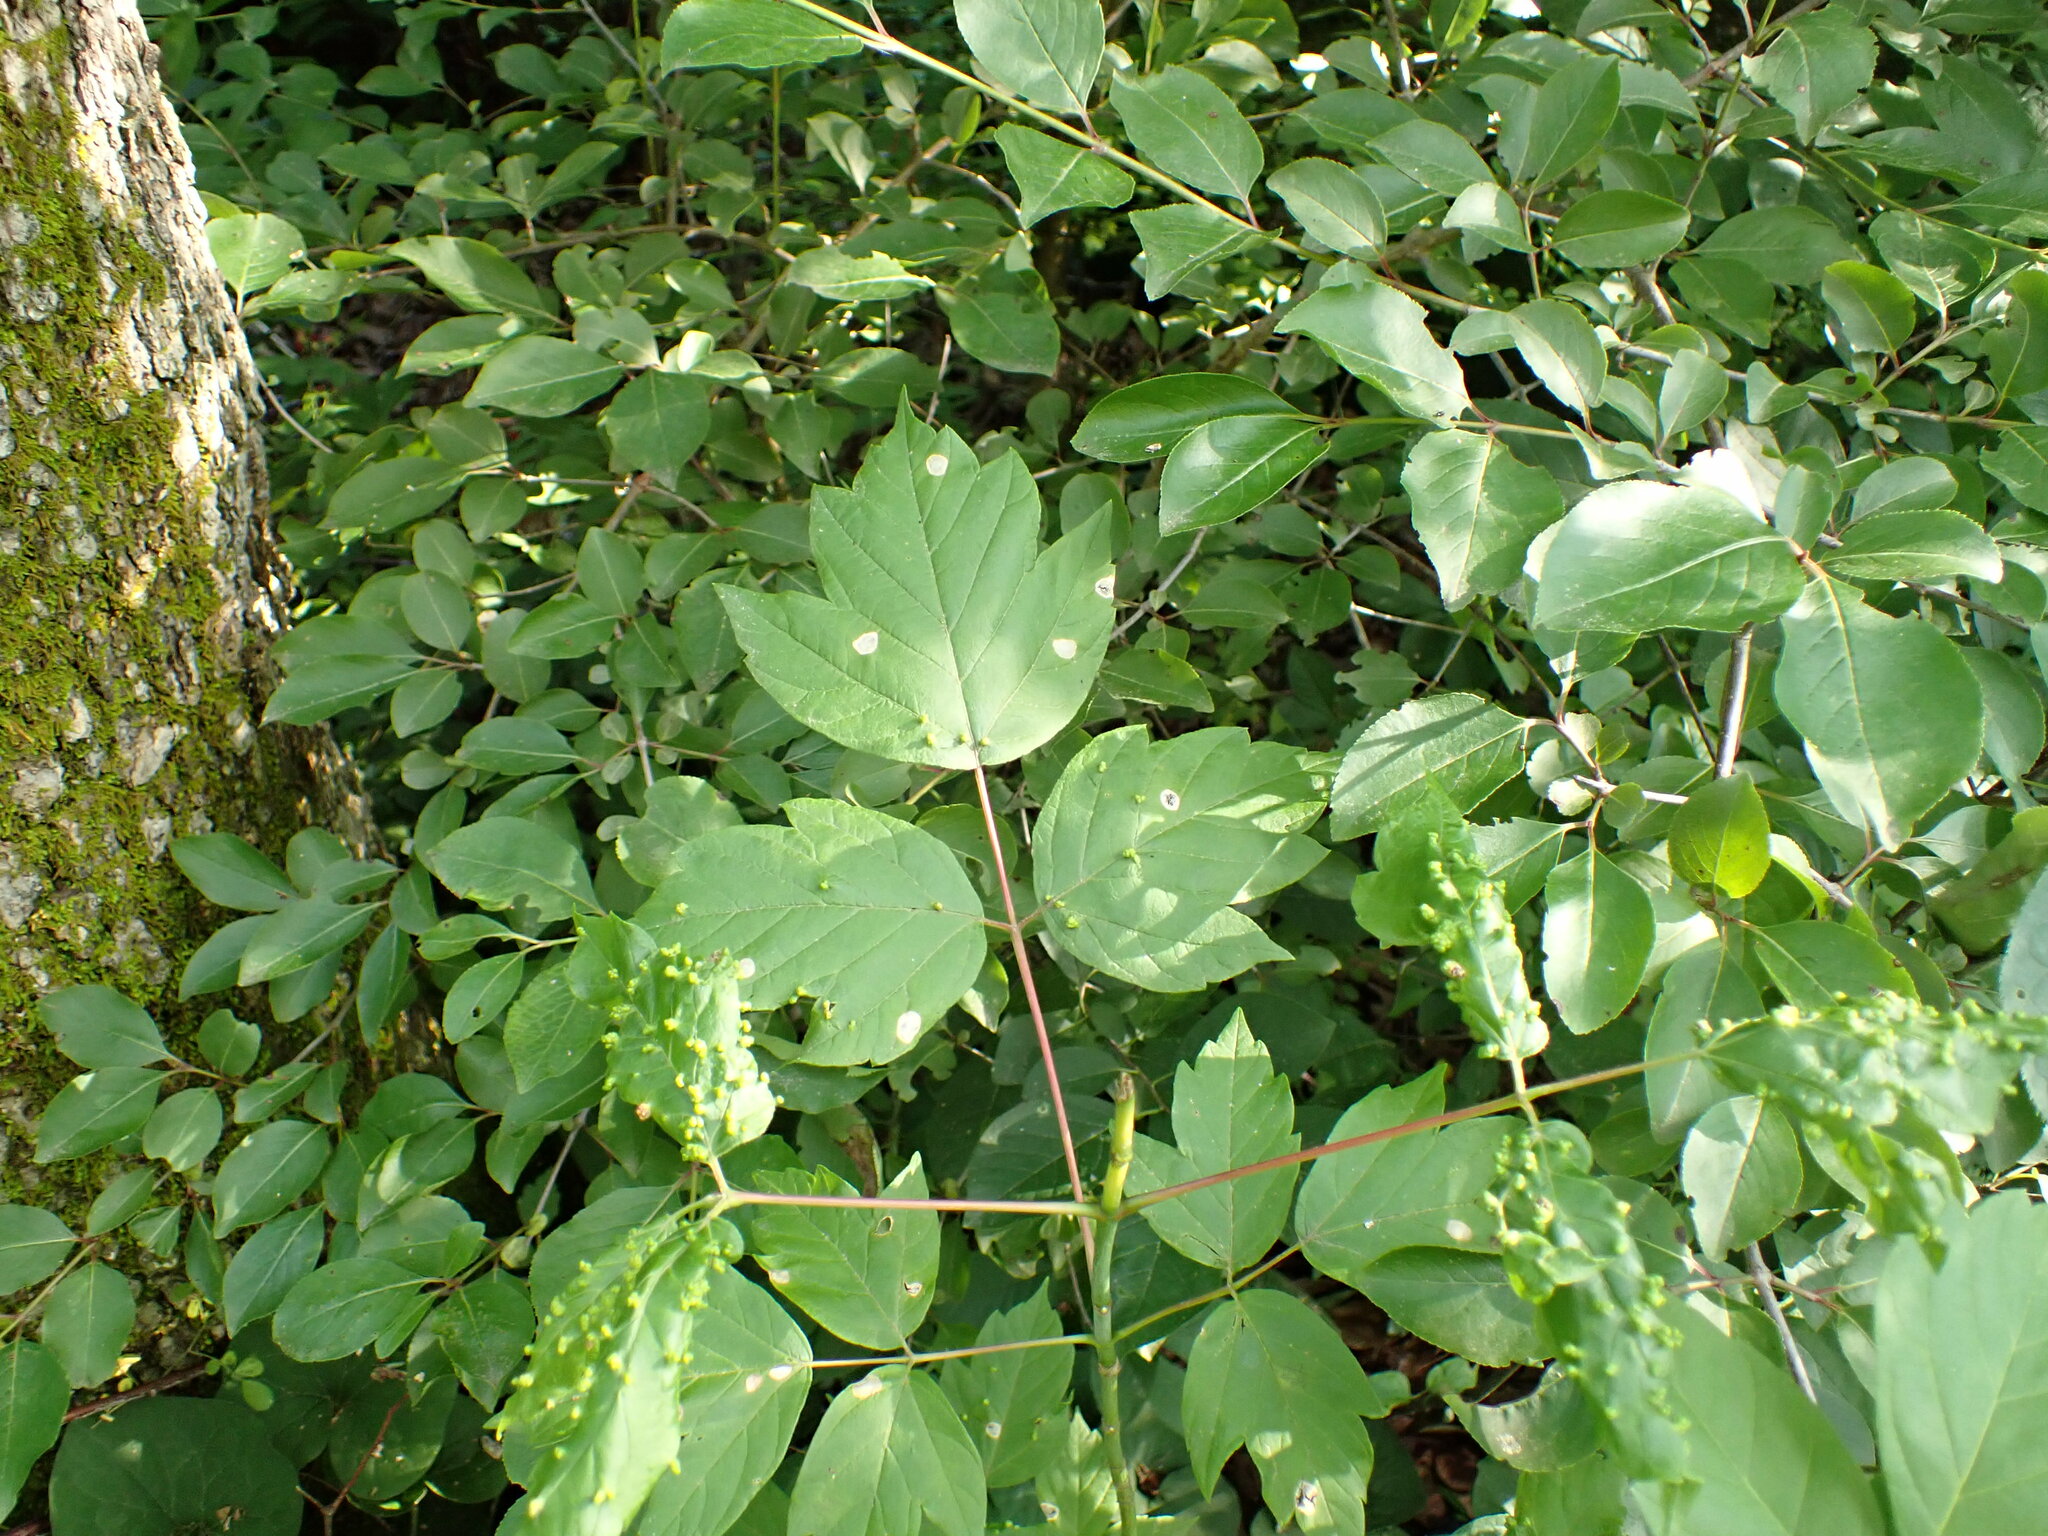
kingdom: Plantae
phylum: Tracheophyta
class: Magnoliopsida
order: Sapindales
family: Sapindaceae
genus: Acer
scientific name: Acer negundo
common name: Ashleaf maple
